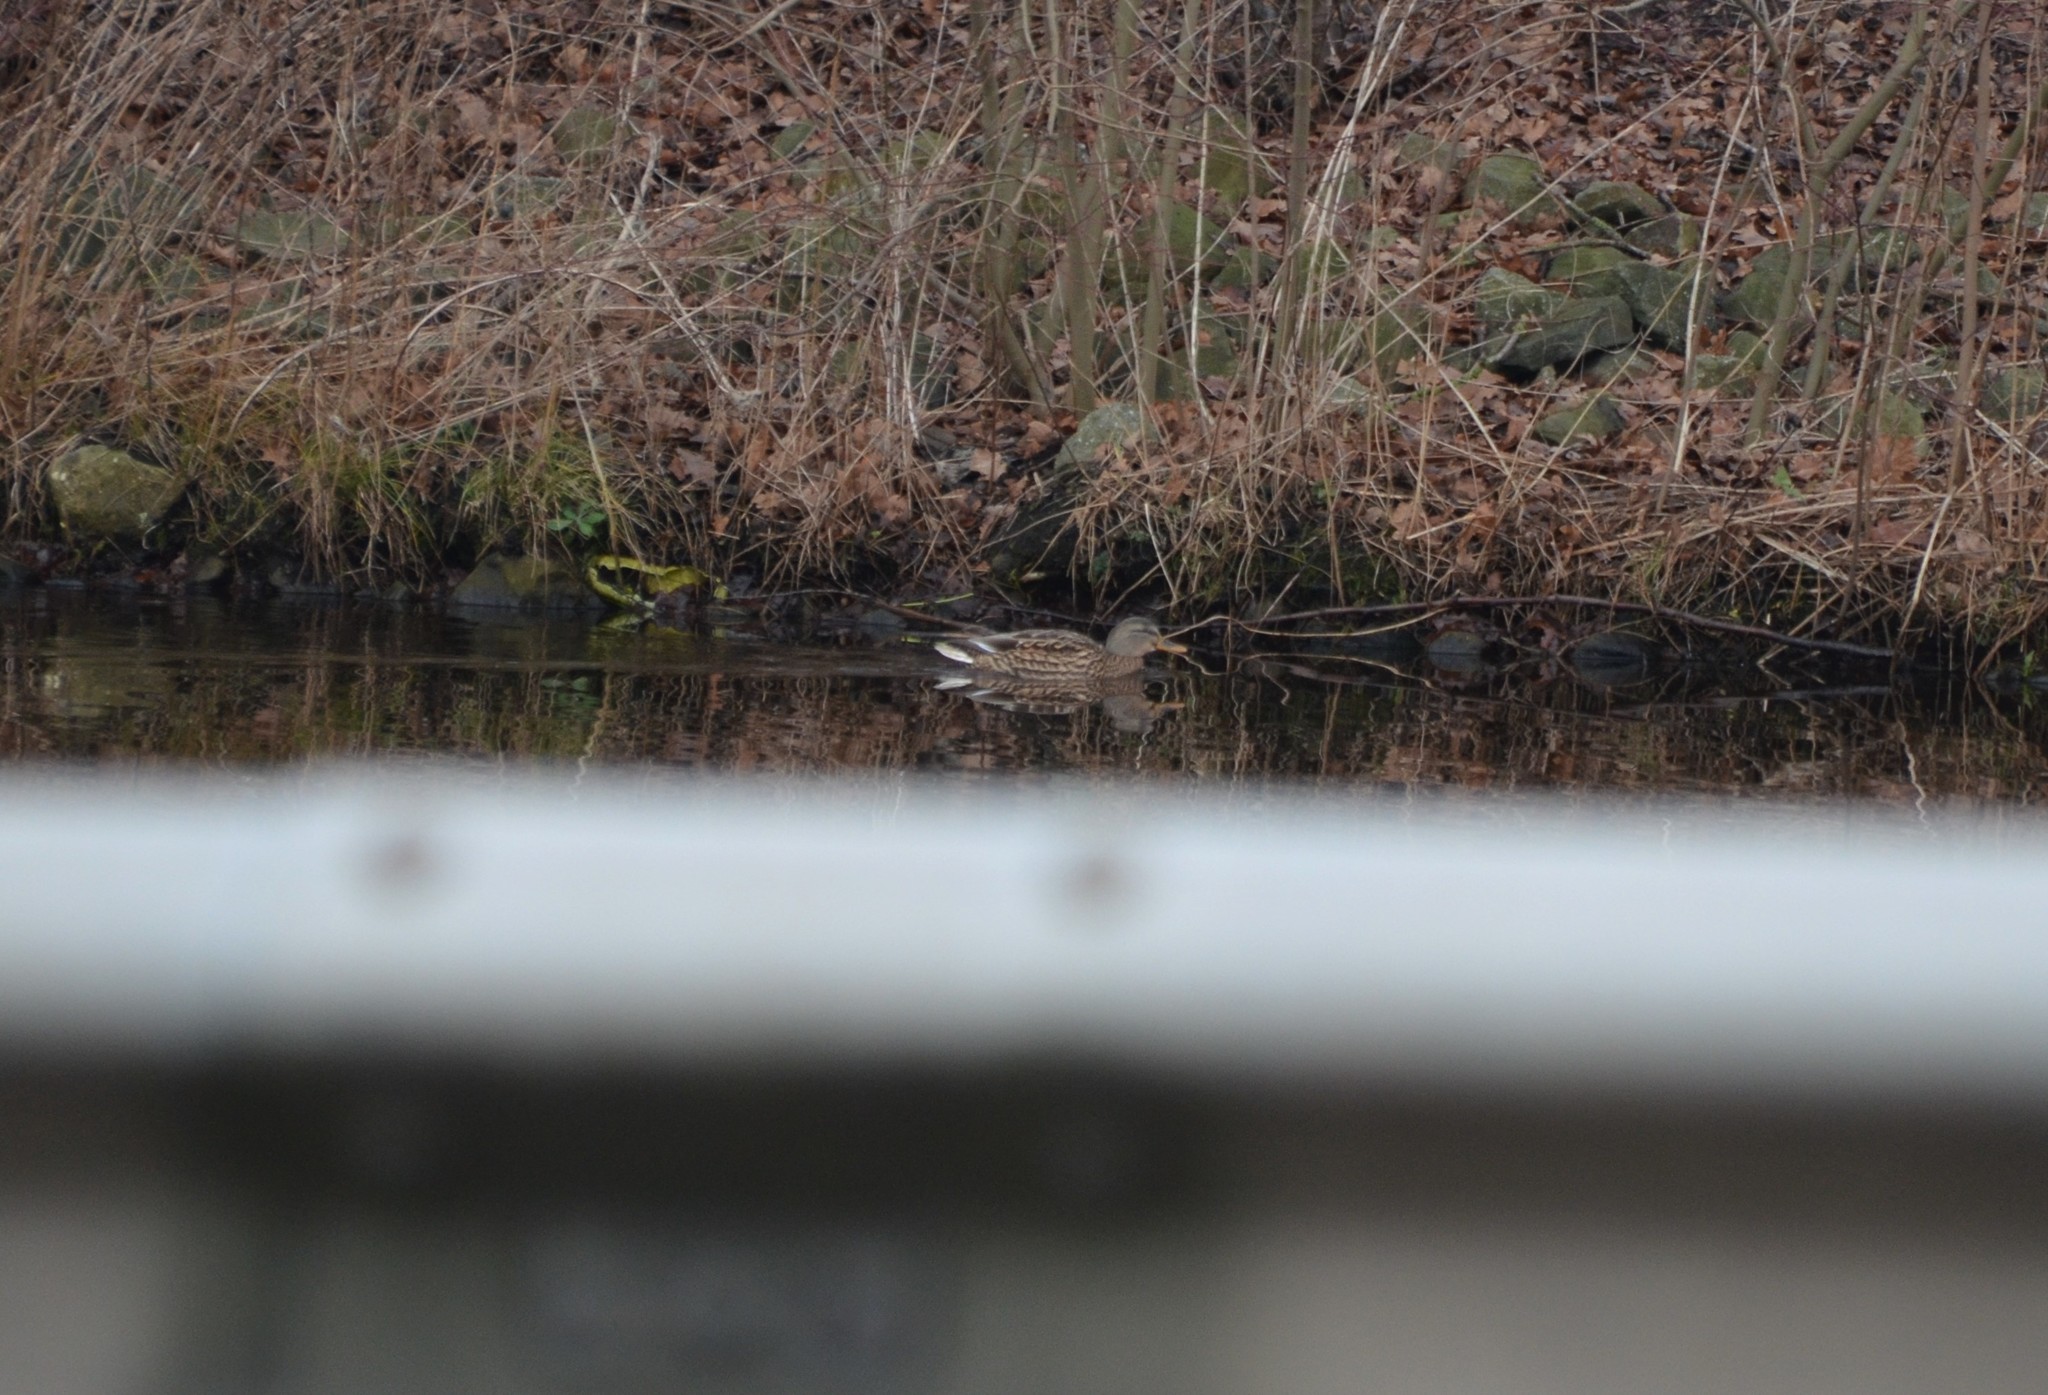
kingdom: Animalia
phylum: Chordata
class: Aves
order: Anseriformes
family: Anatidae
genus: Anas
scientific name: Anas platyrhynchos
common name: Mallard
